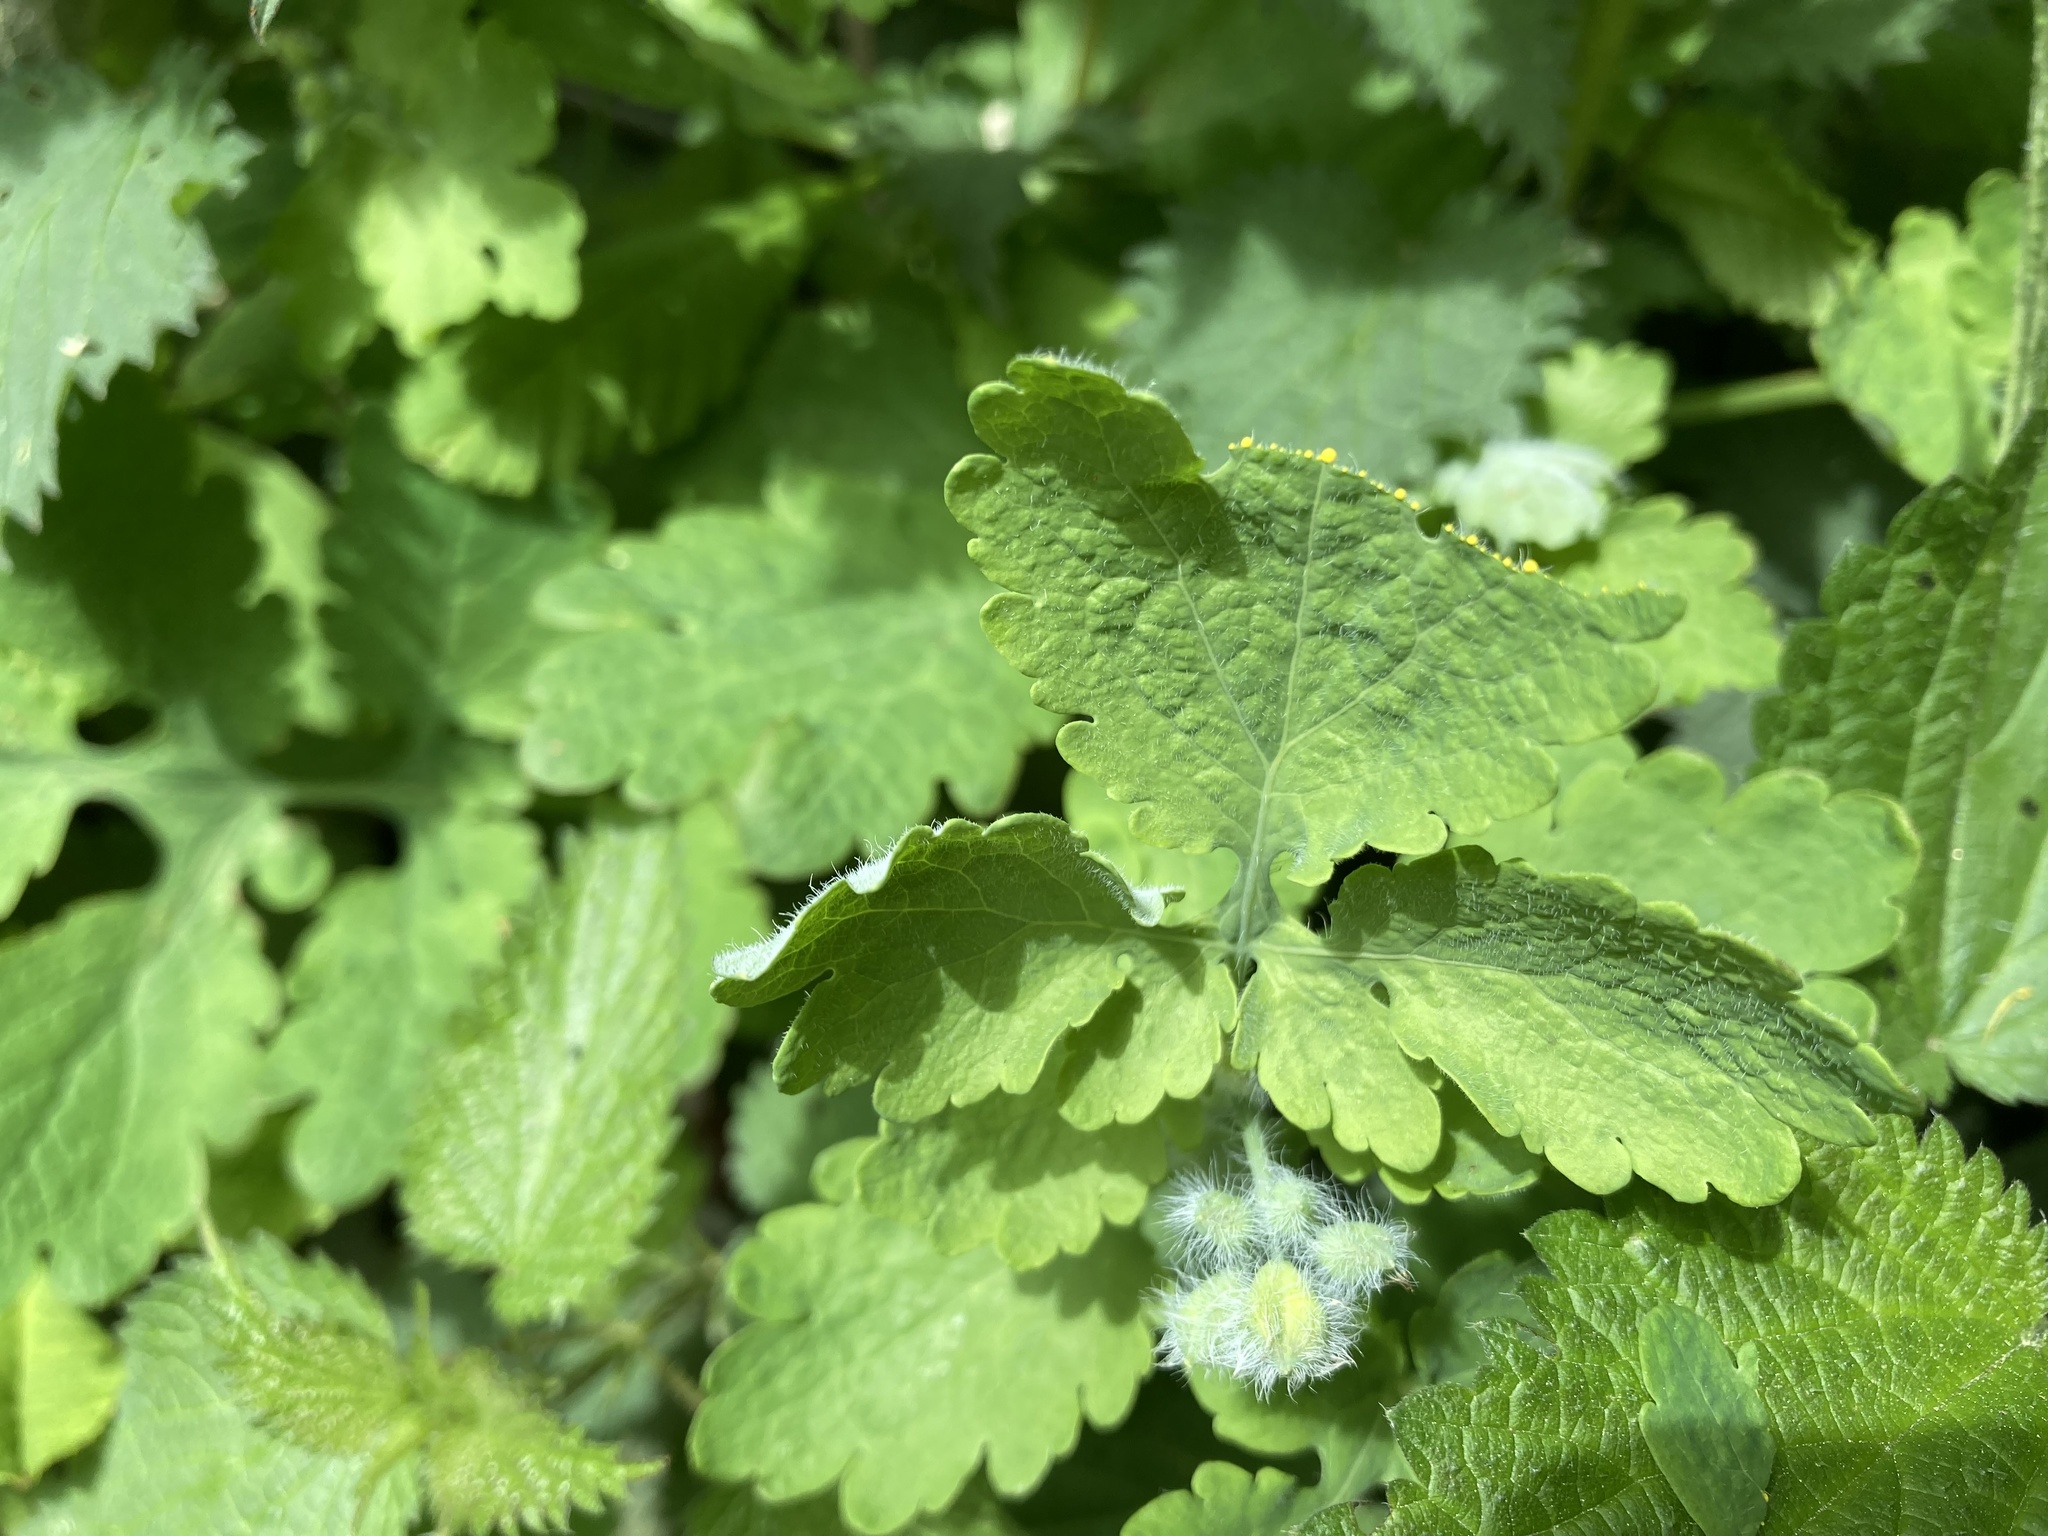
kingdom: Plantae
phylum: Tracheophyta
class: Magnoliopsida
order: Ranunculales
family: Papaveraceae
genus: Chelidonium
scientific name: Chelidonium majus
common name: Greater celandine
